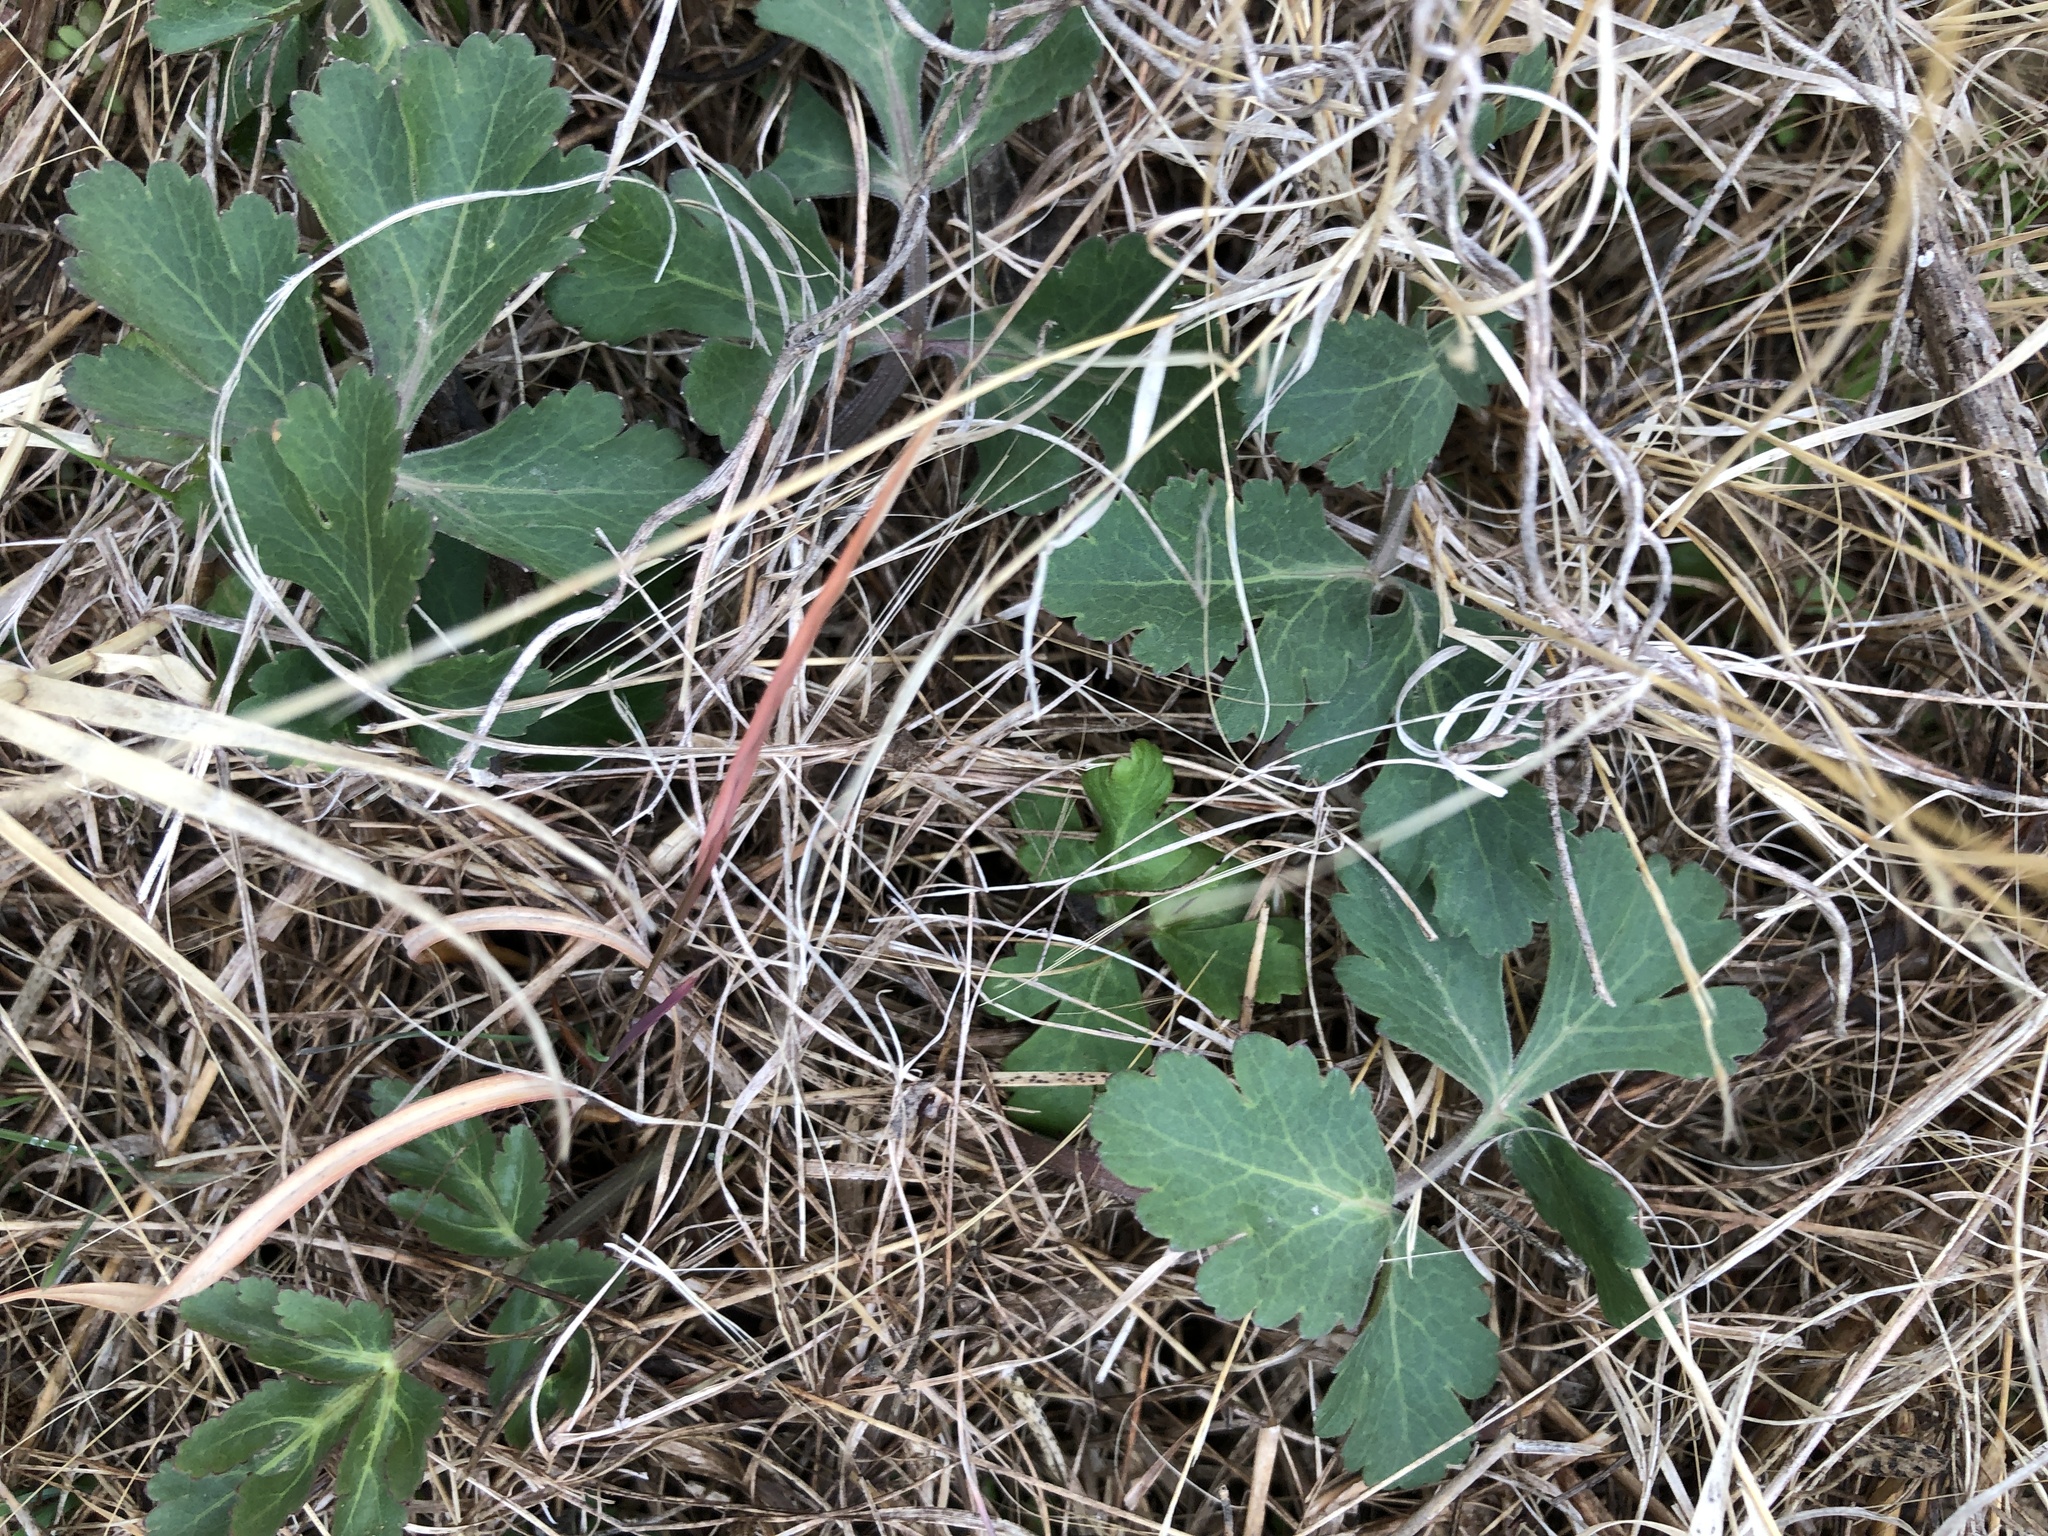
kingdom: Plantae
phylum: Tracheophyta
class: Magnoliopsida
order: Apiales
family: Apiaceae
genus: Polytaenia
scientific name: Polytaenia texana
